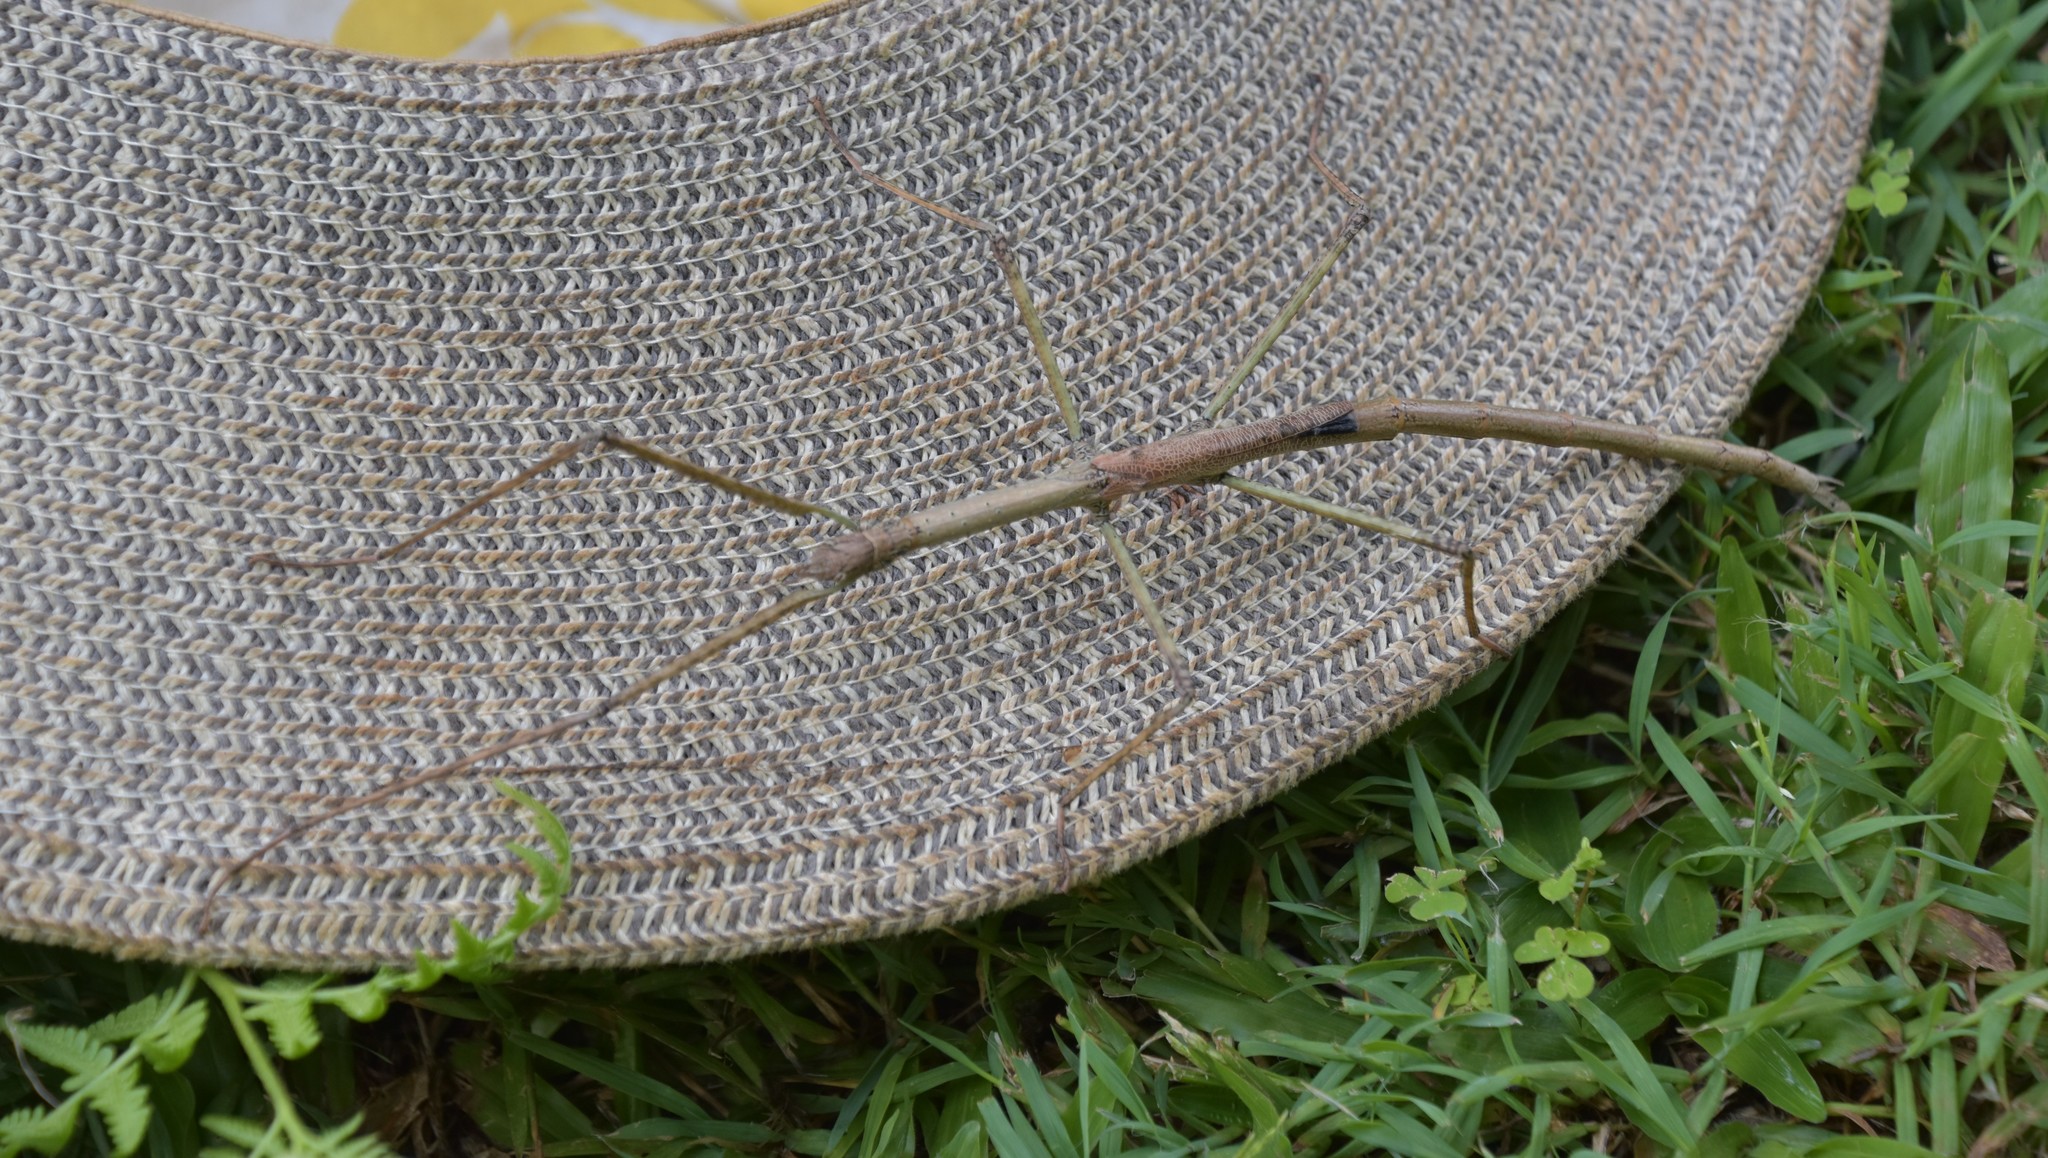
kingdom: Animalia
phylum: Arthropoda
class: Insecta
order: Phasmida
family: Phasmatidae
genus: Anchiale
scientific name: Anchiale austrotessulata
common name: Tessellated stick-insect
